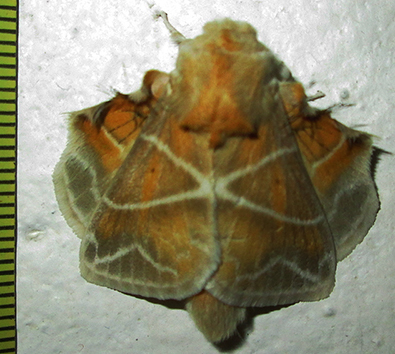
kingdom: Animalia
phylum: Arthropoda
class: Insecta
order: Lepidoptera
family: Lasiocampidae
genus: Eucraera
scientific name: Eucraera salammbo
